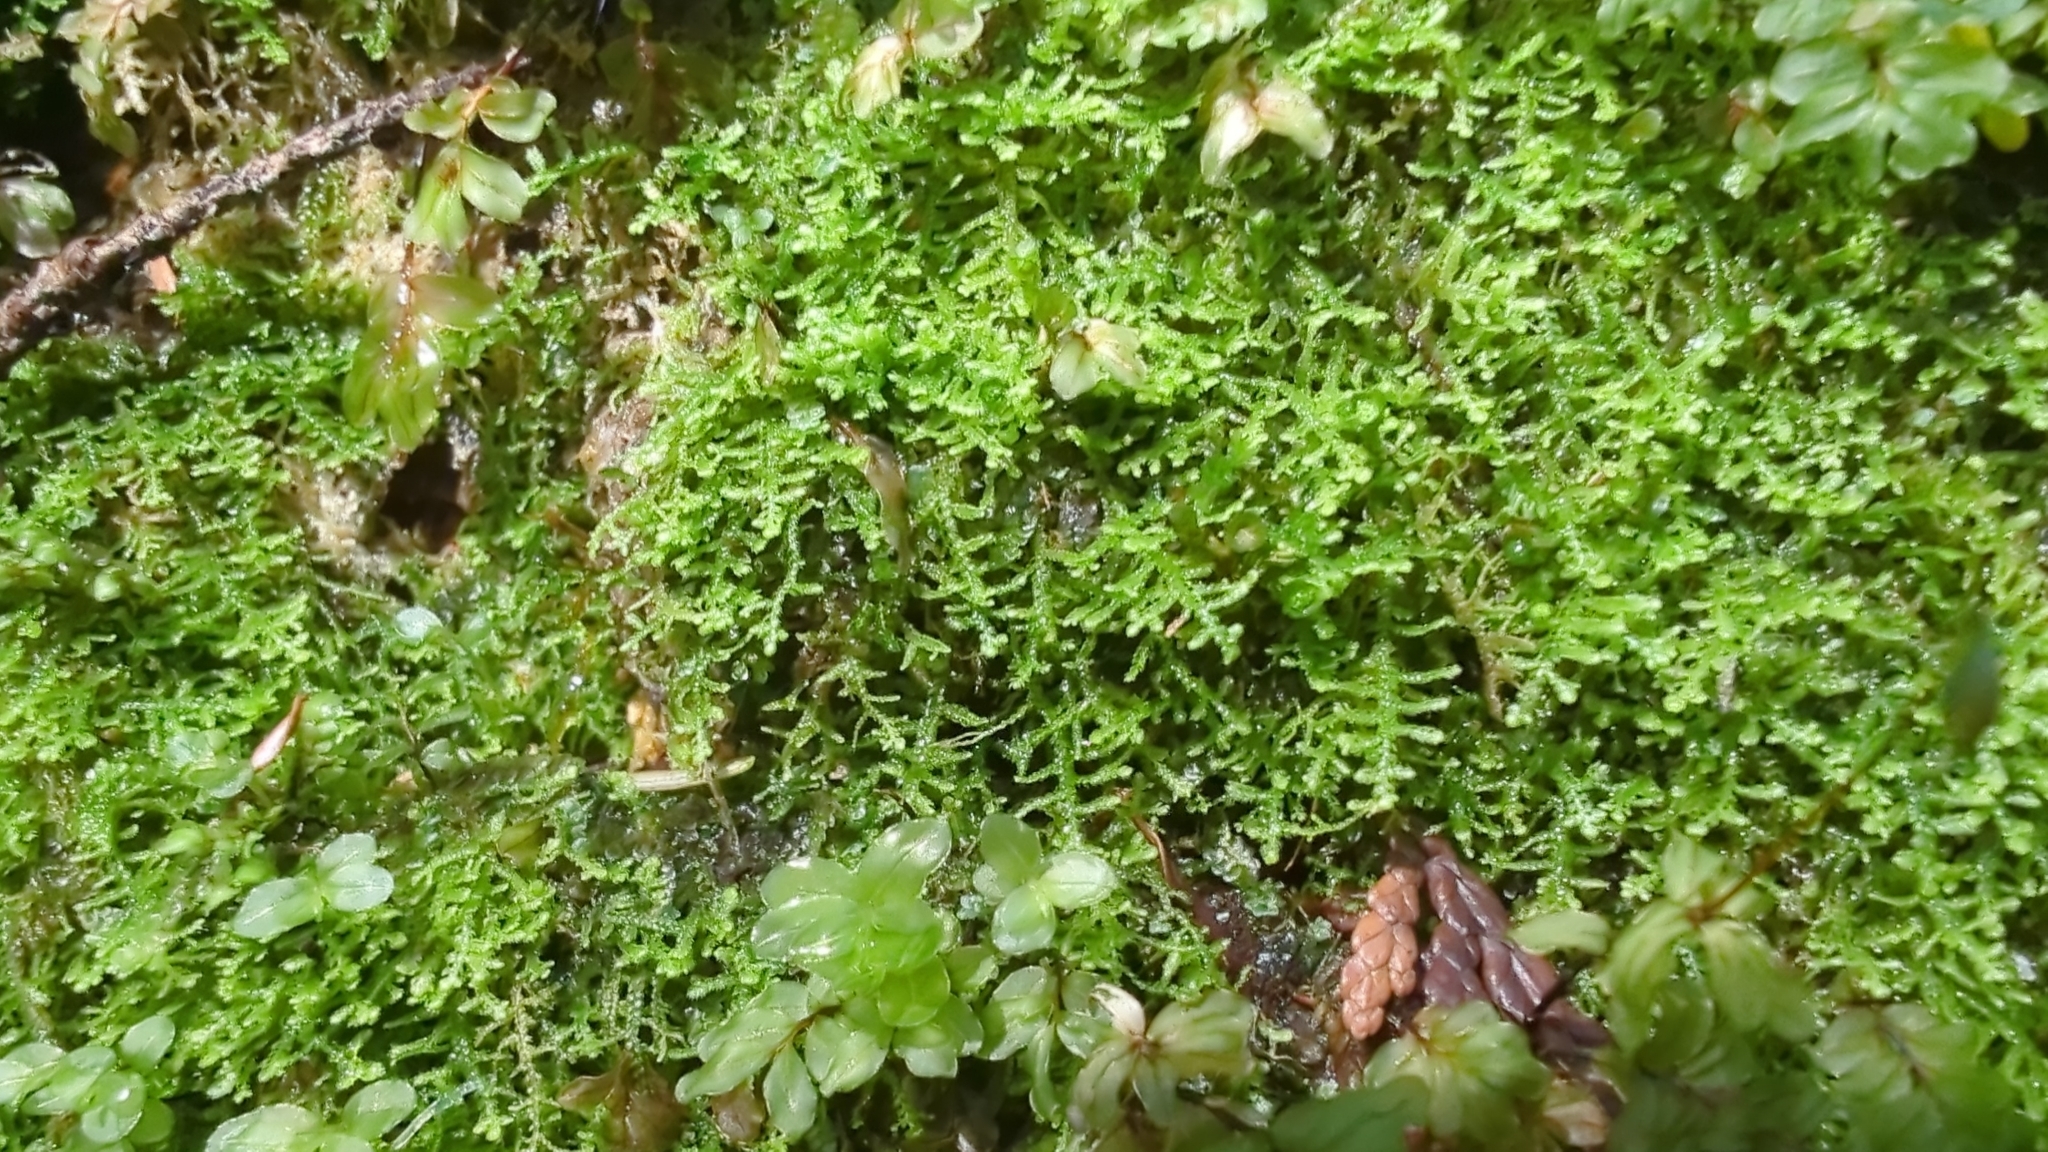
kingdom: Plantae
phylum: Marchantiophyta
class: Jungermanniopsida
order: Jungermanniales
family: Lepidoziaceae
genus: Lepidozia
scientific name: Lepidozia reptans
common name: Creeping fingerwort
